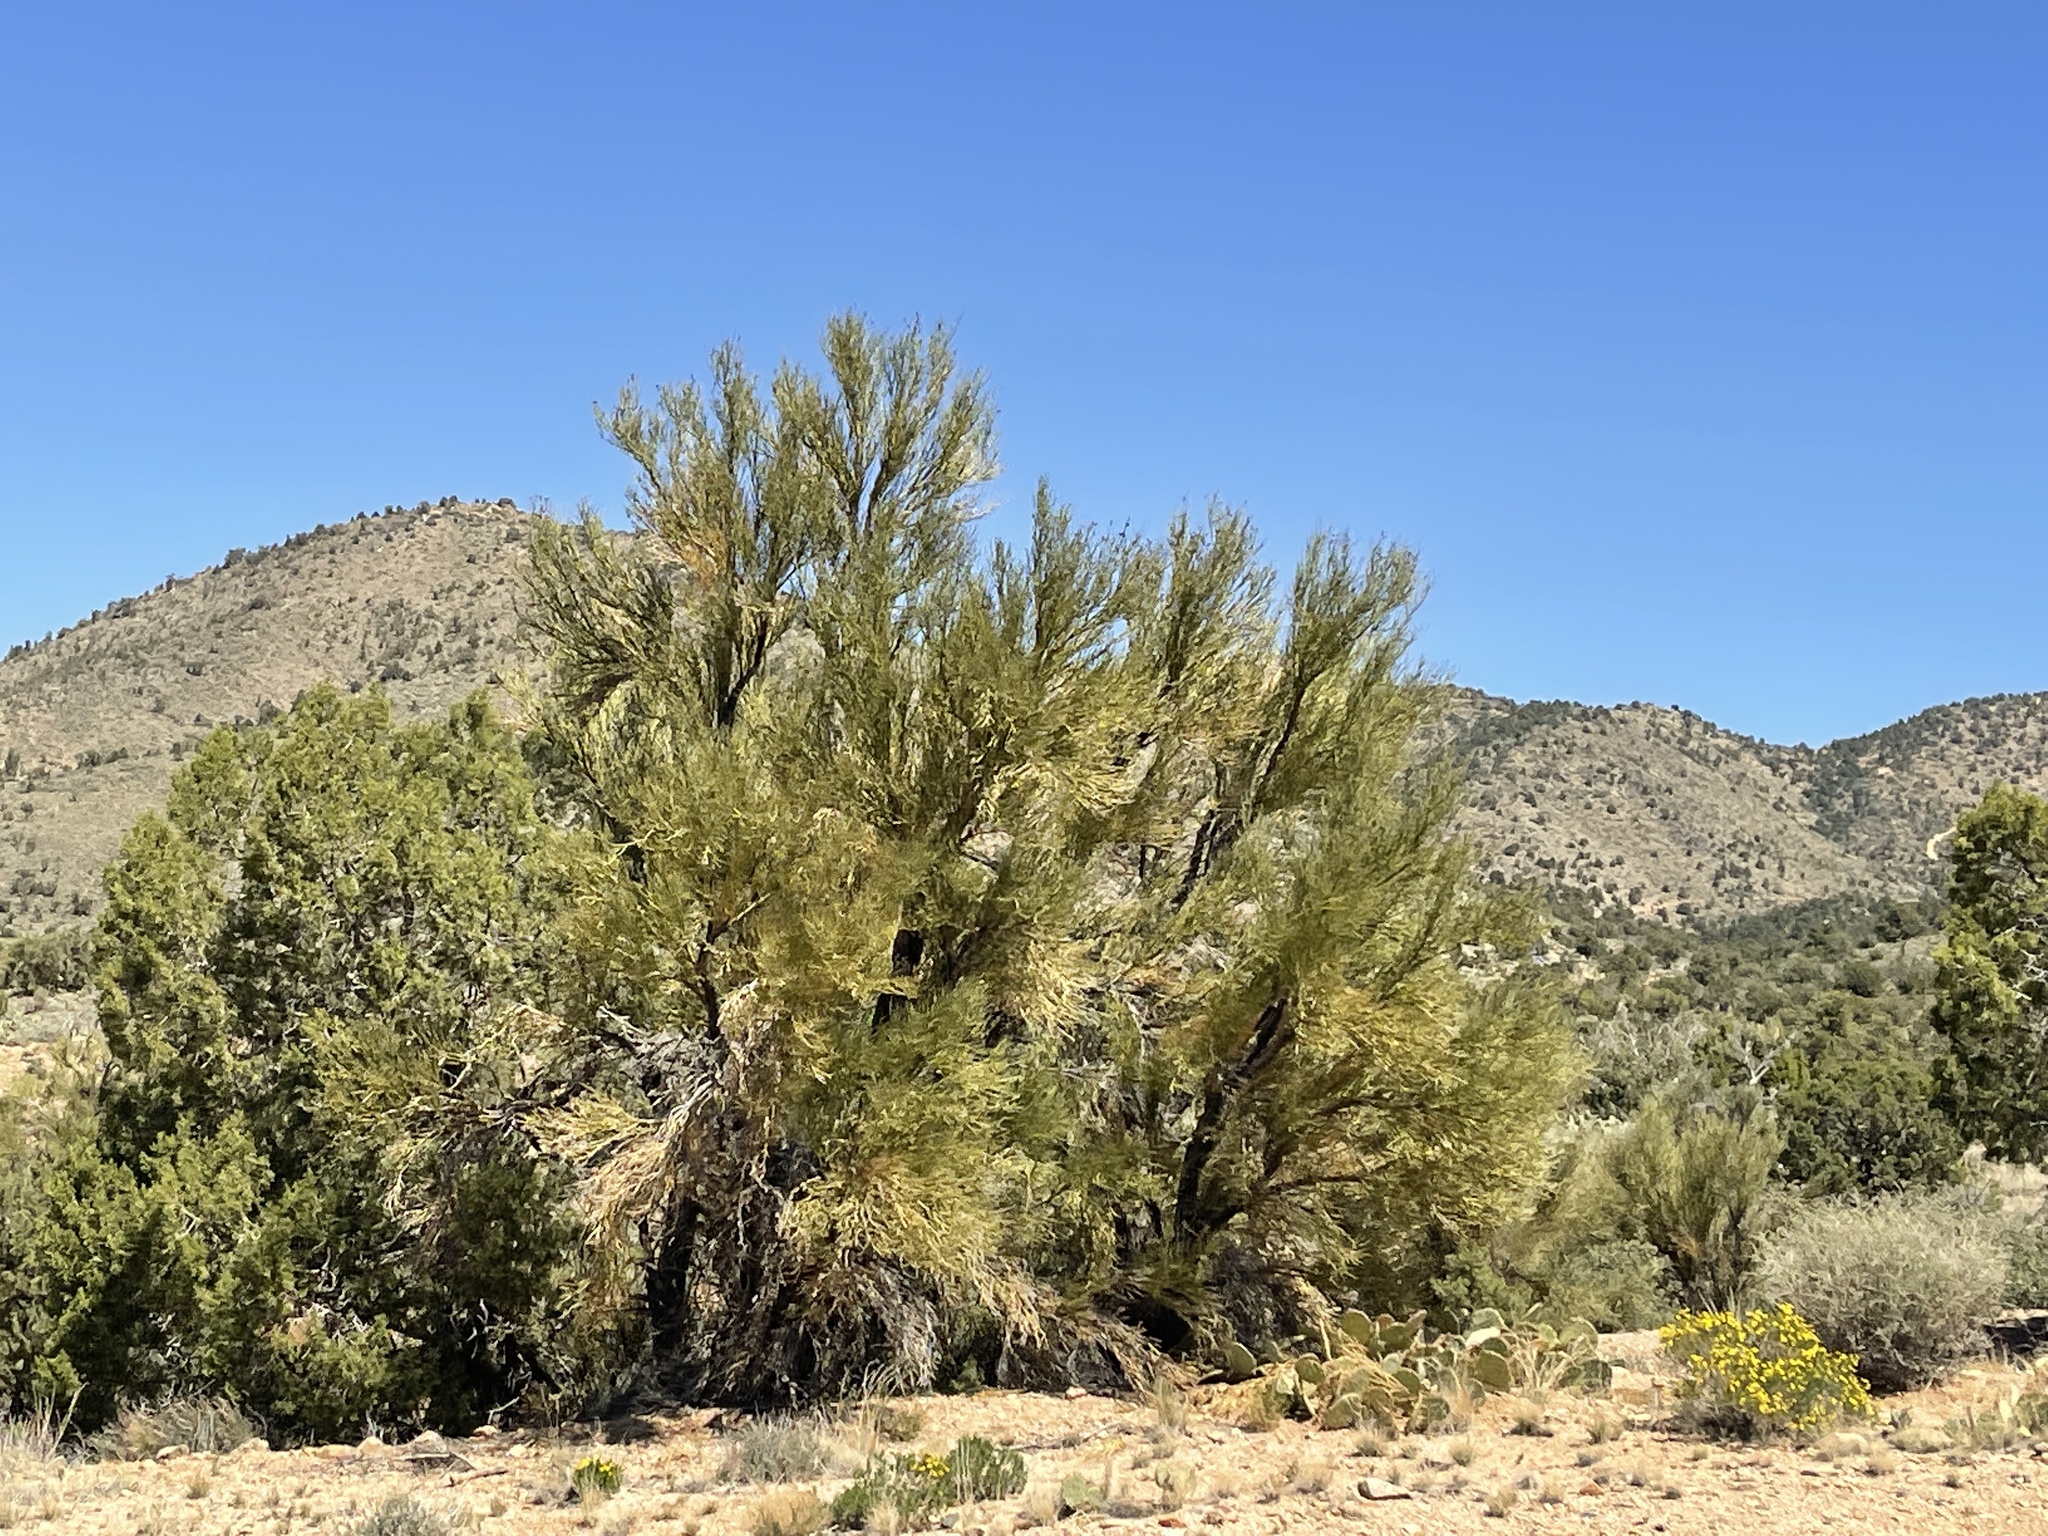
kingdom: Plantae
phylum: Tracheophyta
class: Magnoliopsida
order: Celastrales
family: Celastraceae
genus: Canotia
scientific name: Canotia holacantha
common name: Crucifixion thorns
